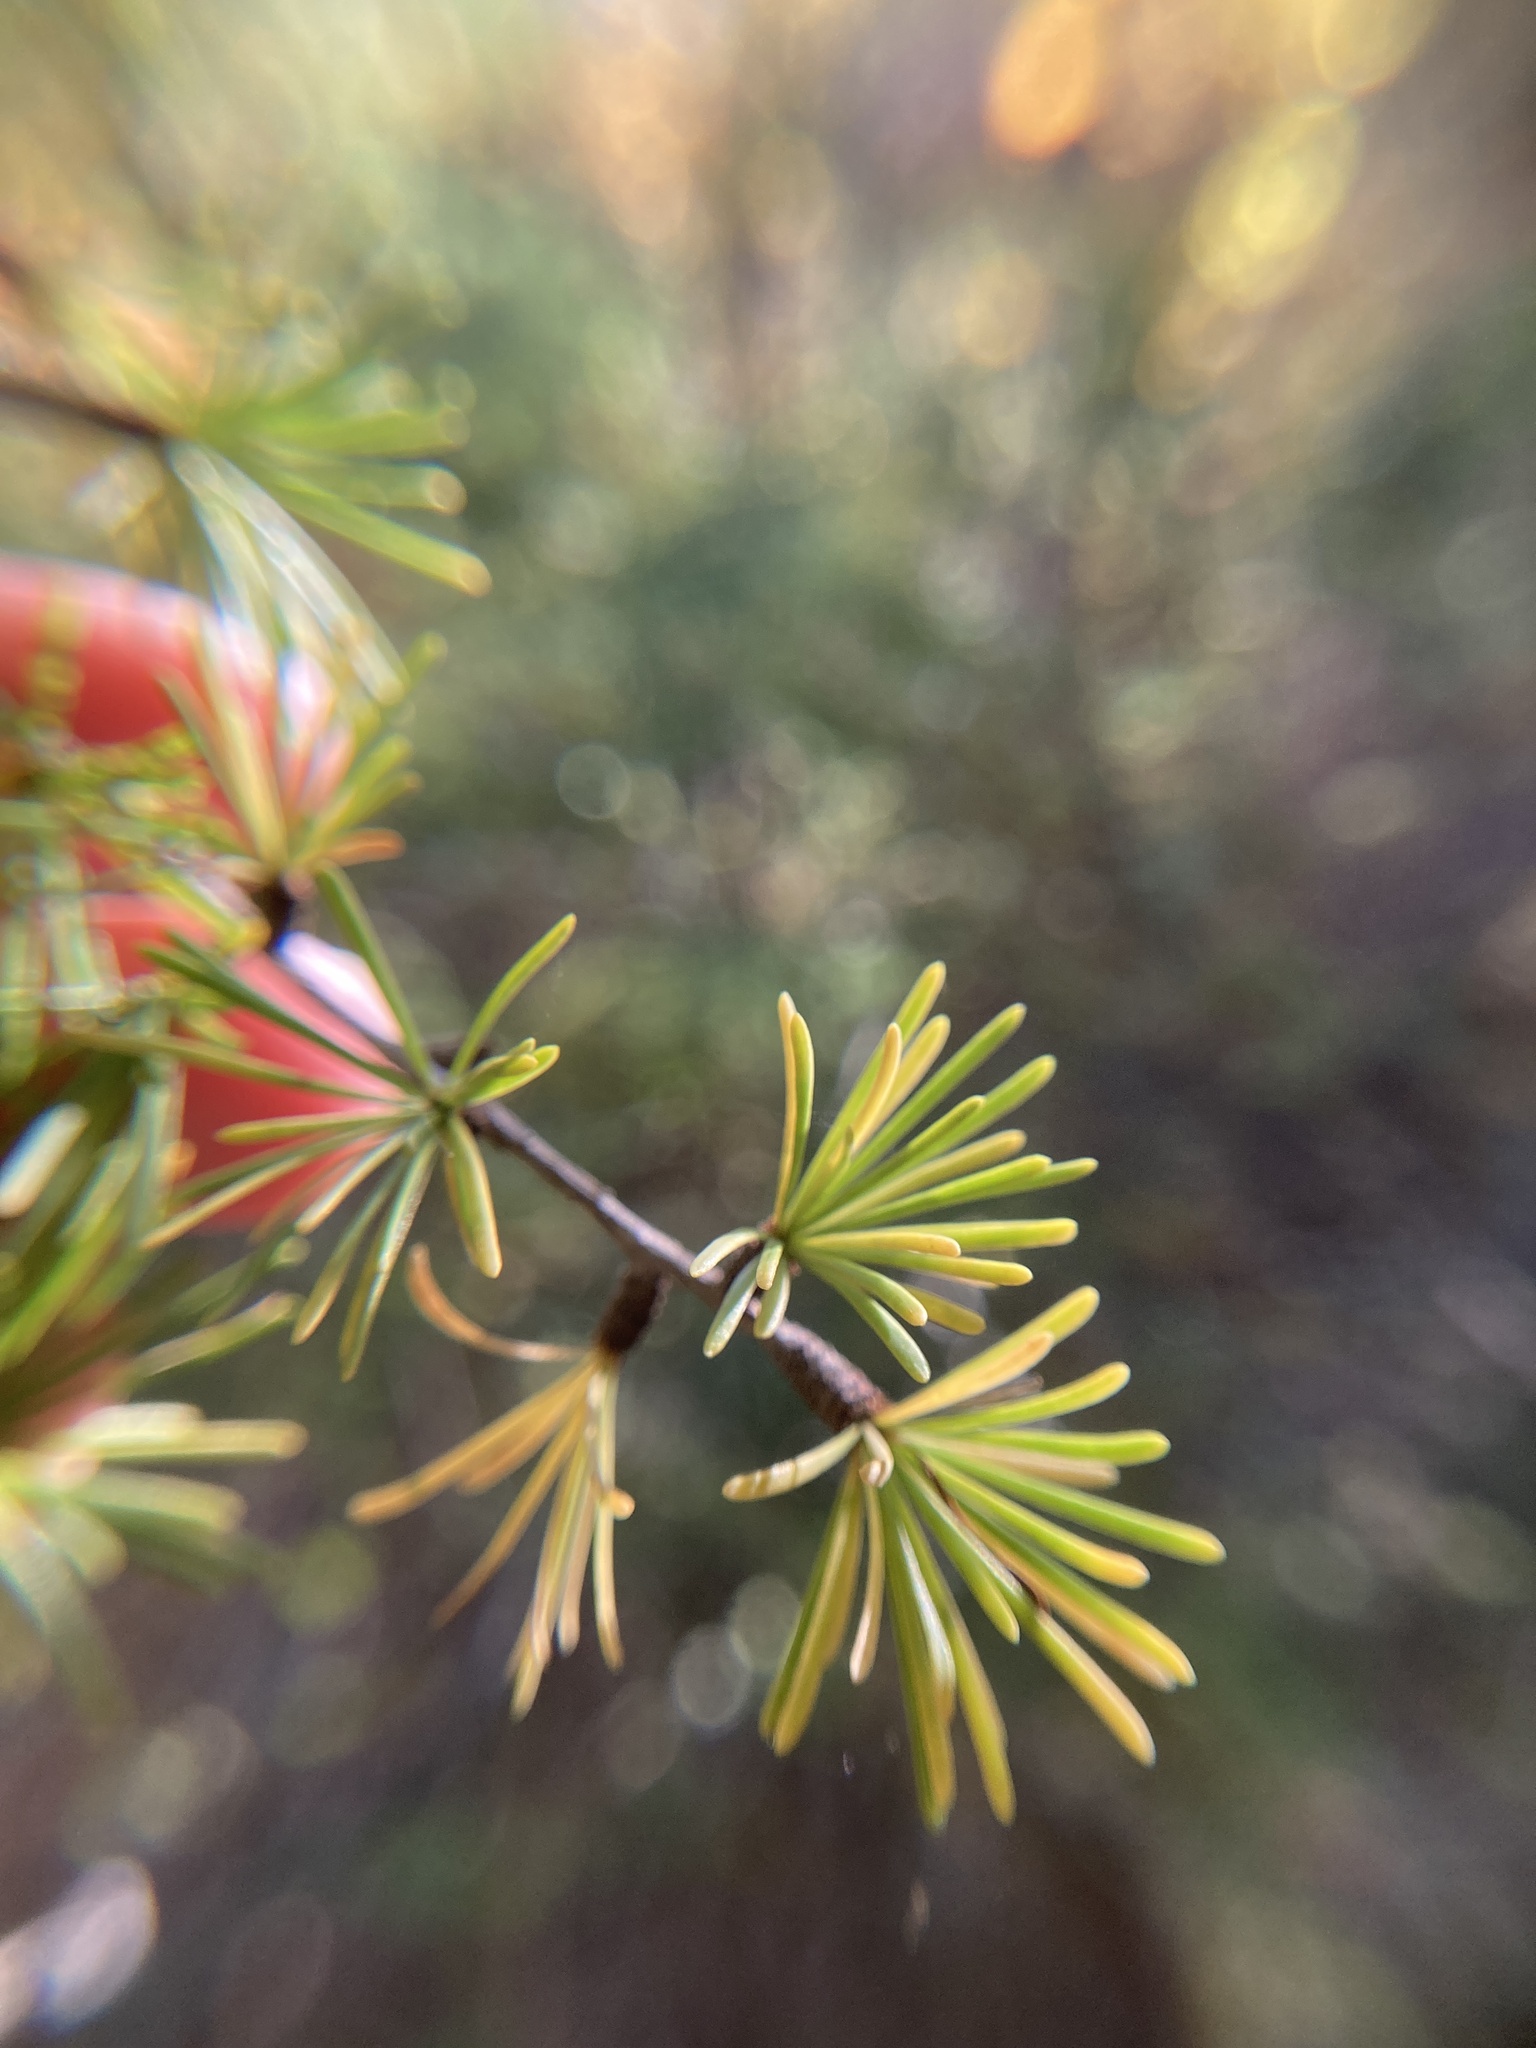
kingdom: Plantae
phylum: Tracheophyta
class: Pinopsida
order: Pinales
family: Pinaceae
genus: Larix
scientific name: Larix laricina
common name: American larch
